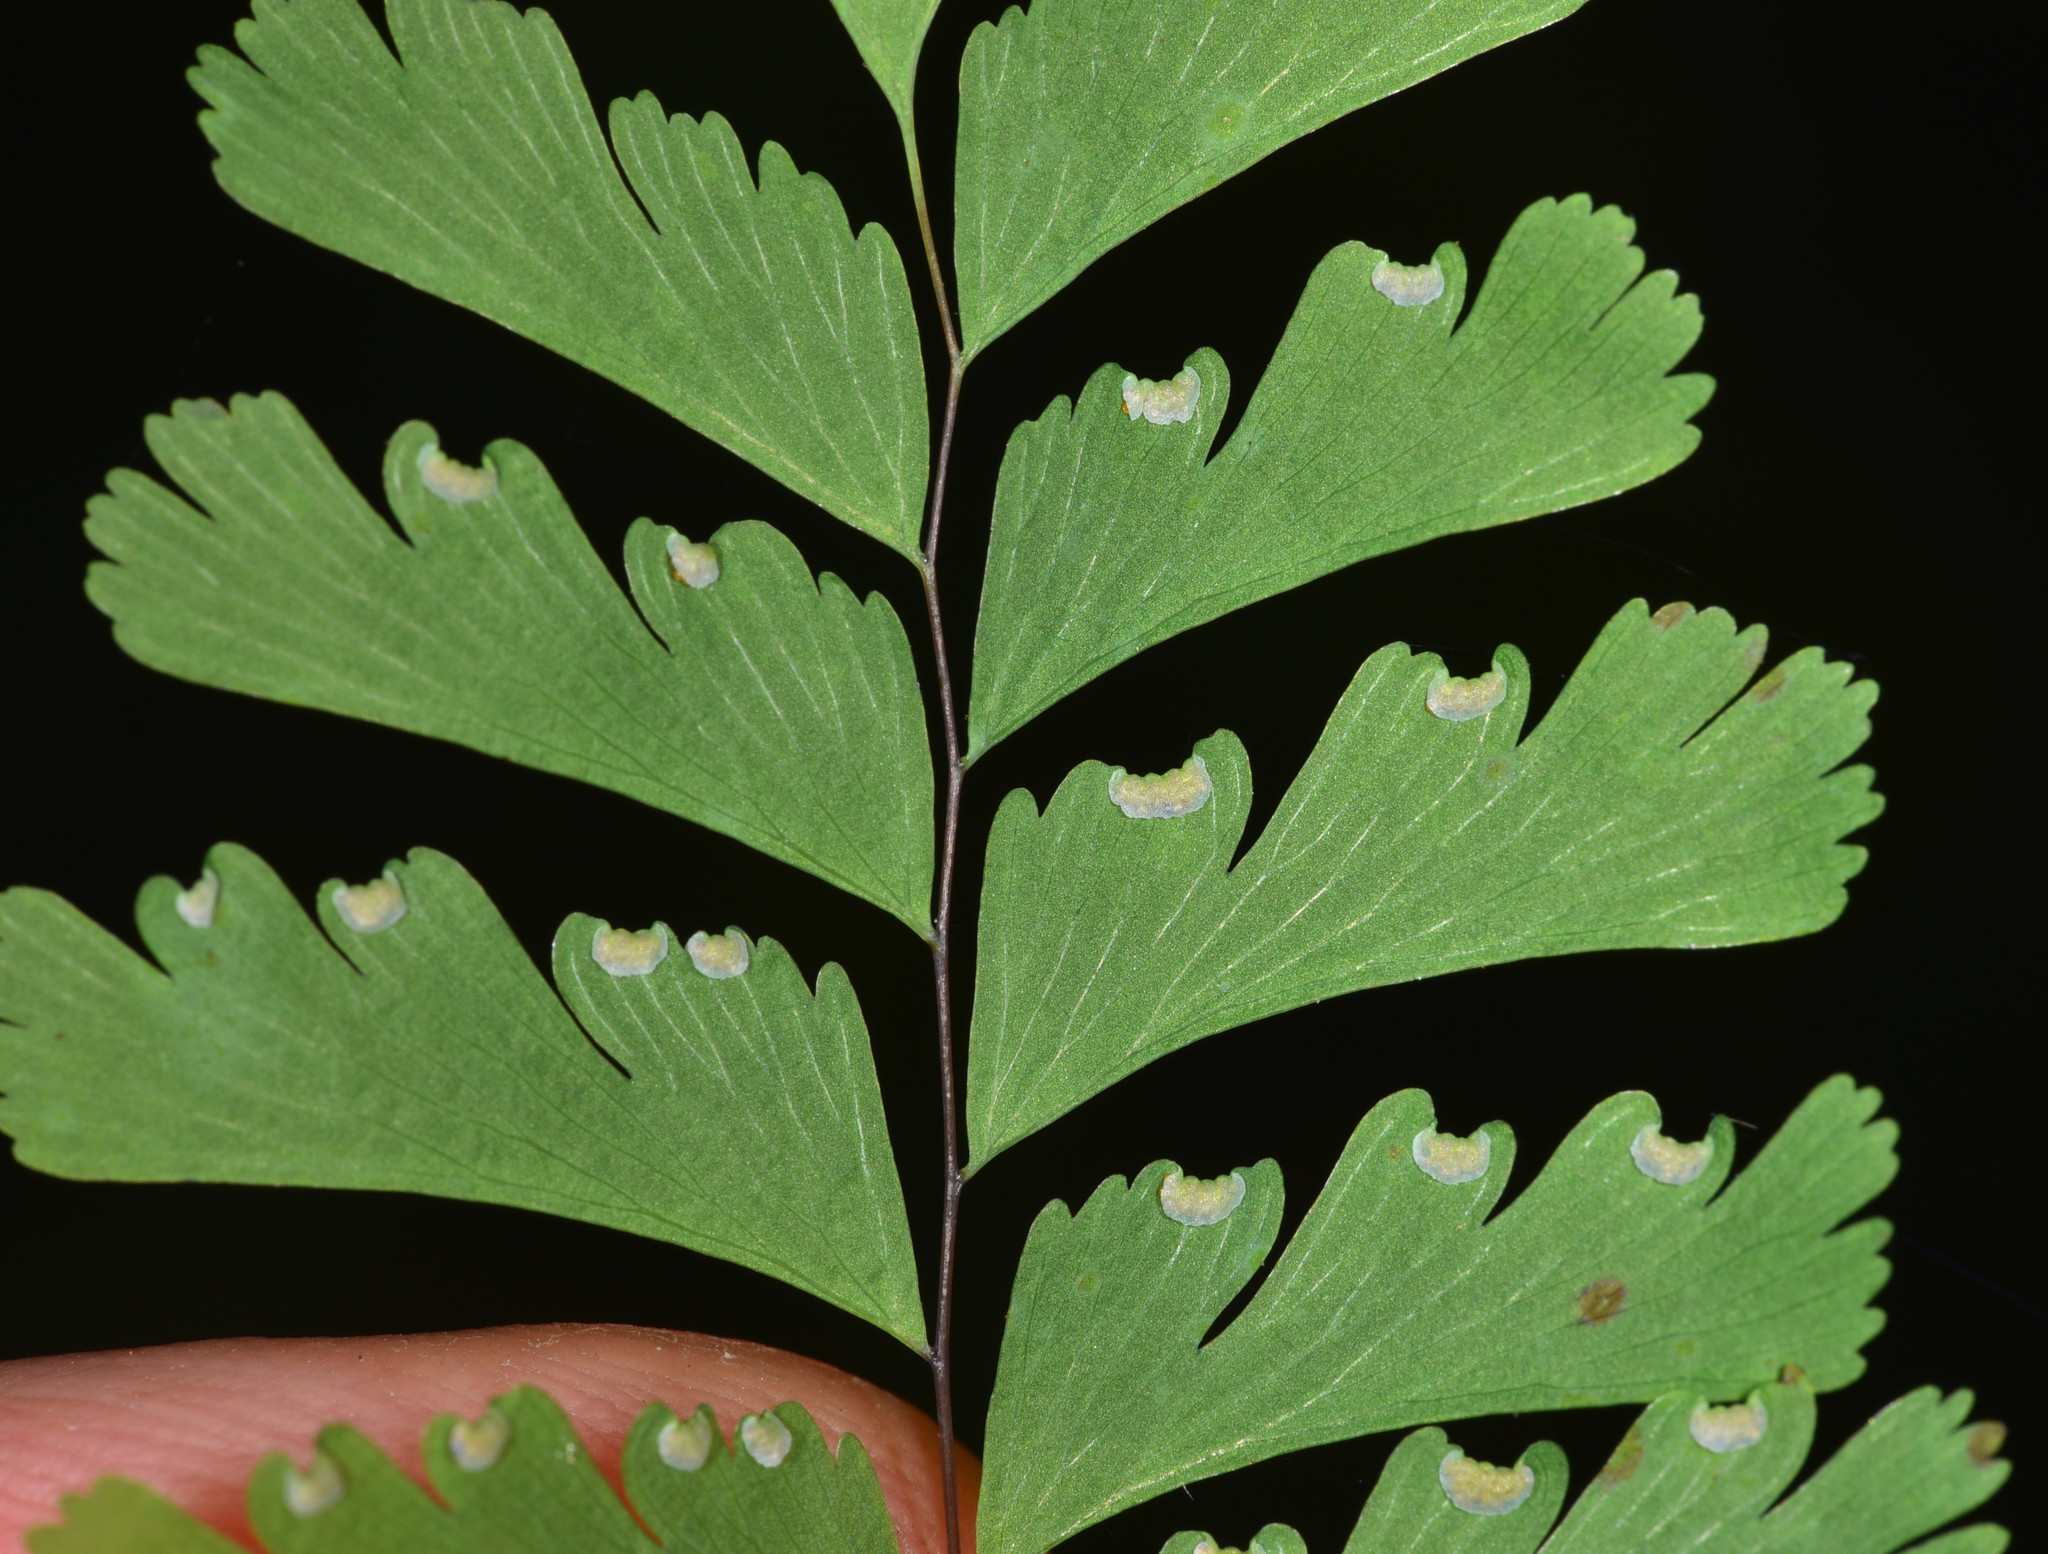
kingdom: Plantae
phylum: Tracheophyta
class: Polypodiopsida
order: Polypodiales
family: Pteridaceae
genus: Adiantum
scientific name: Adiantum aleuticum
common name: Aleutian maidenhair fern
